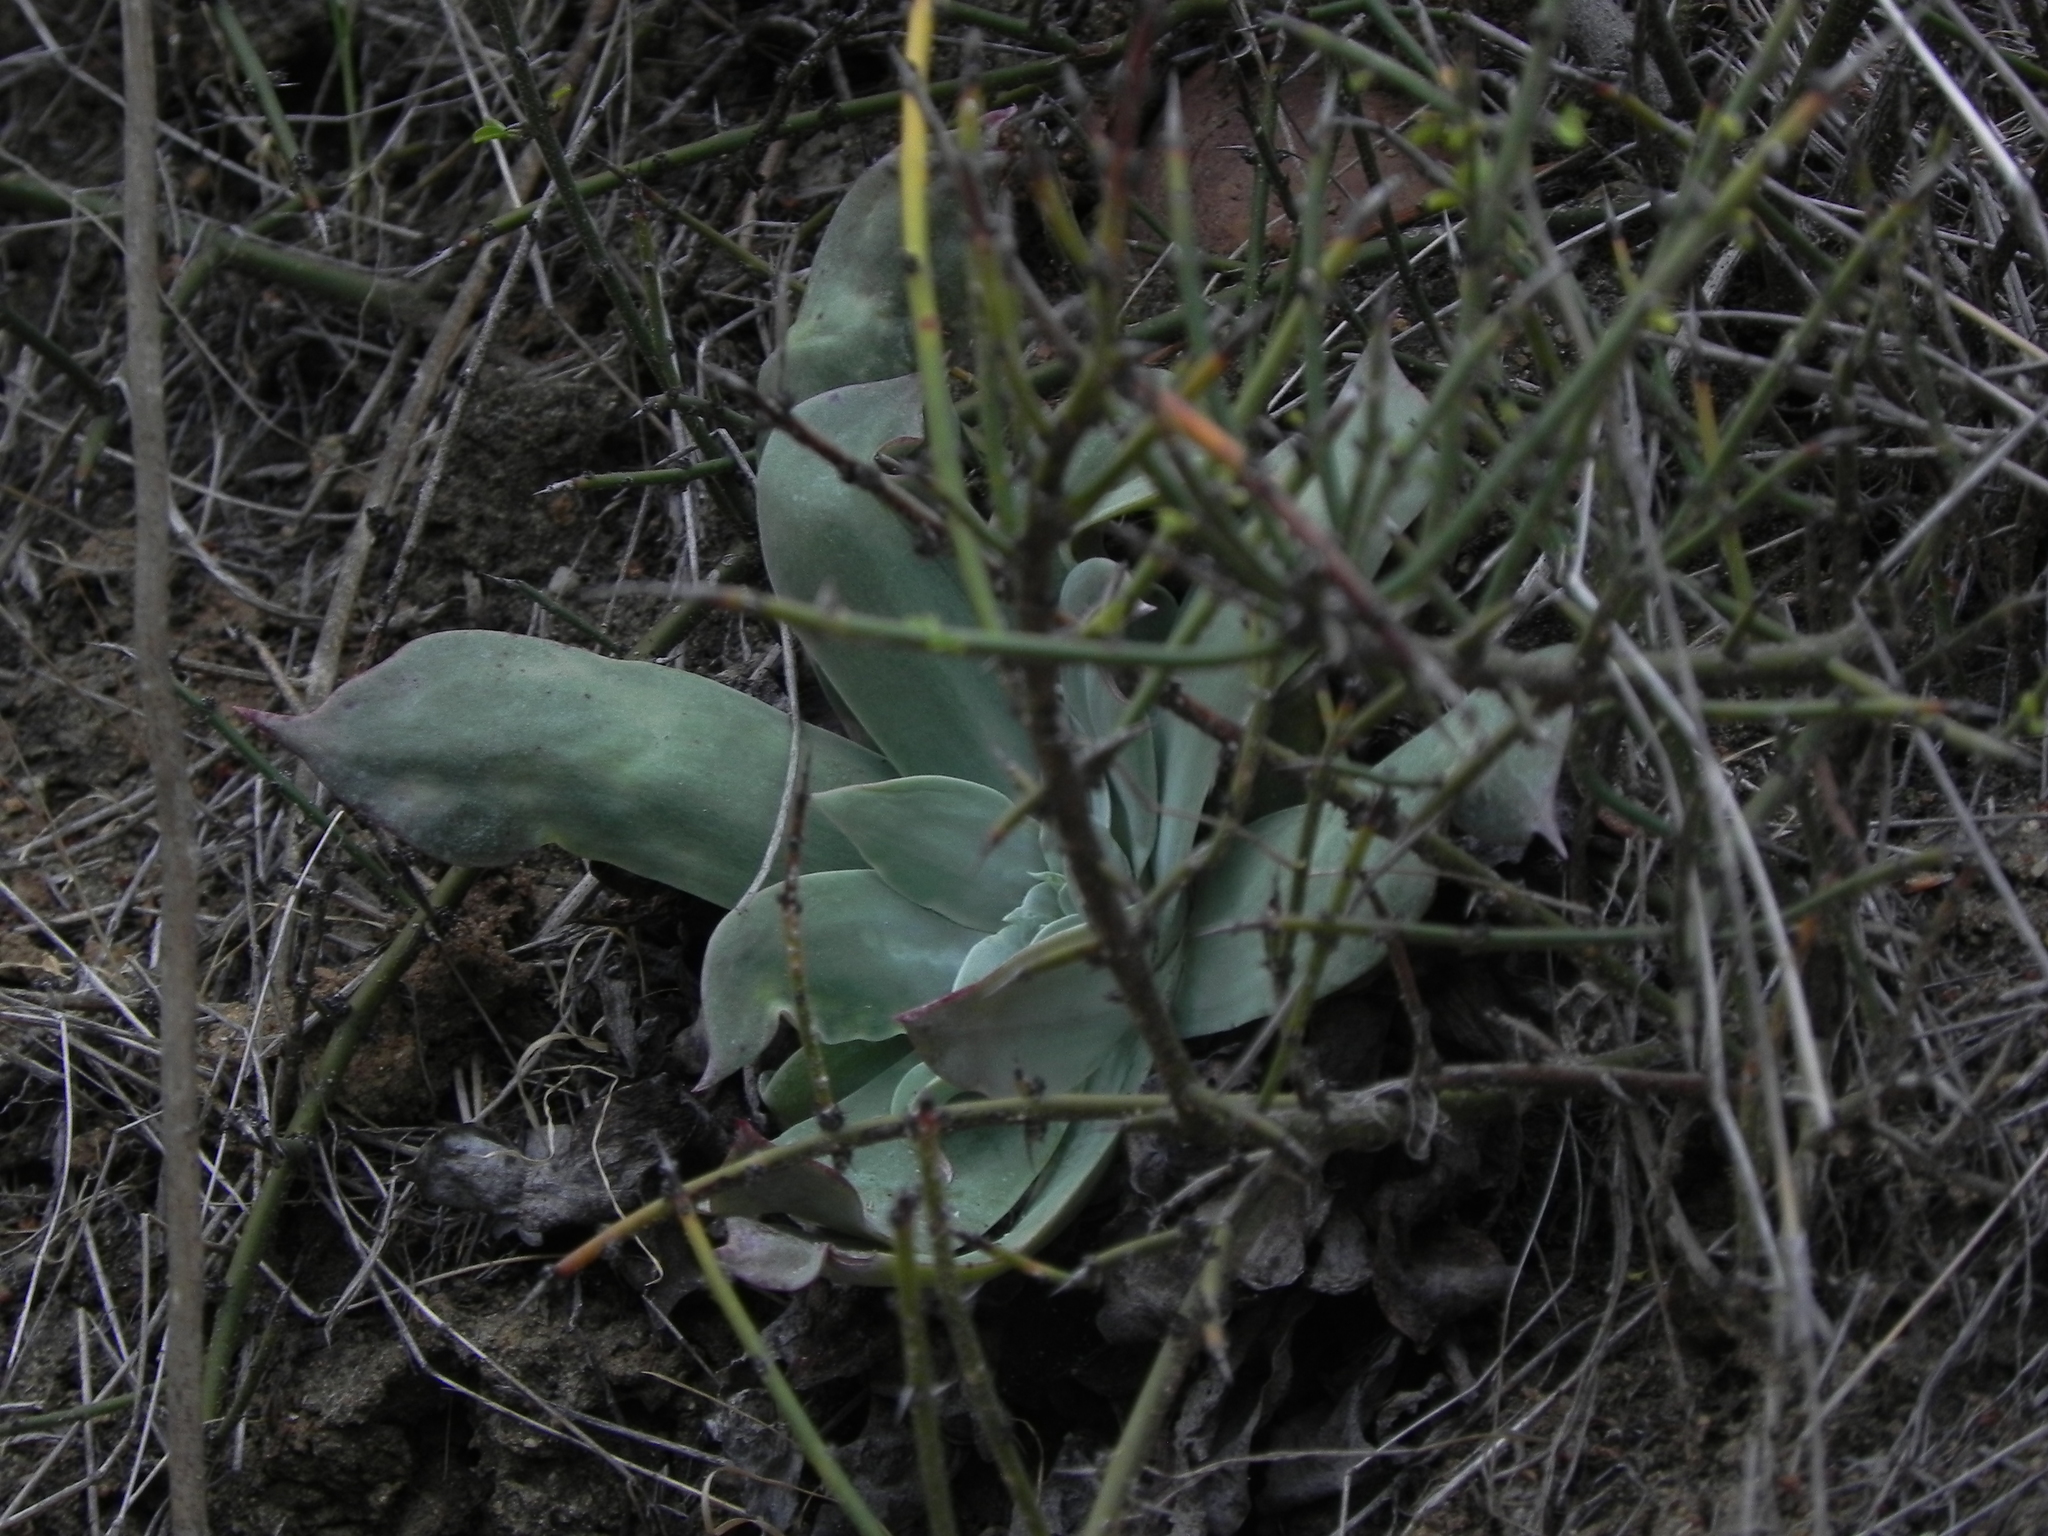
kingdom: Plantae
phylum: Tracheophyta
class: Magnoliopsida
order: Saxifragales
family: Crassulaceae
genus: Dudleya
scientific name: Dudleya pulverulenta
